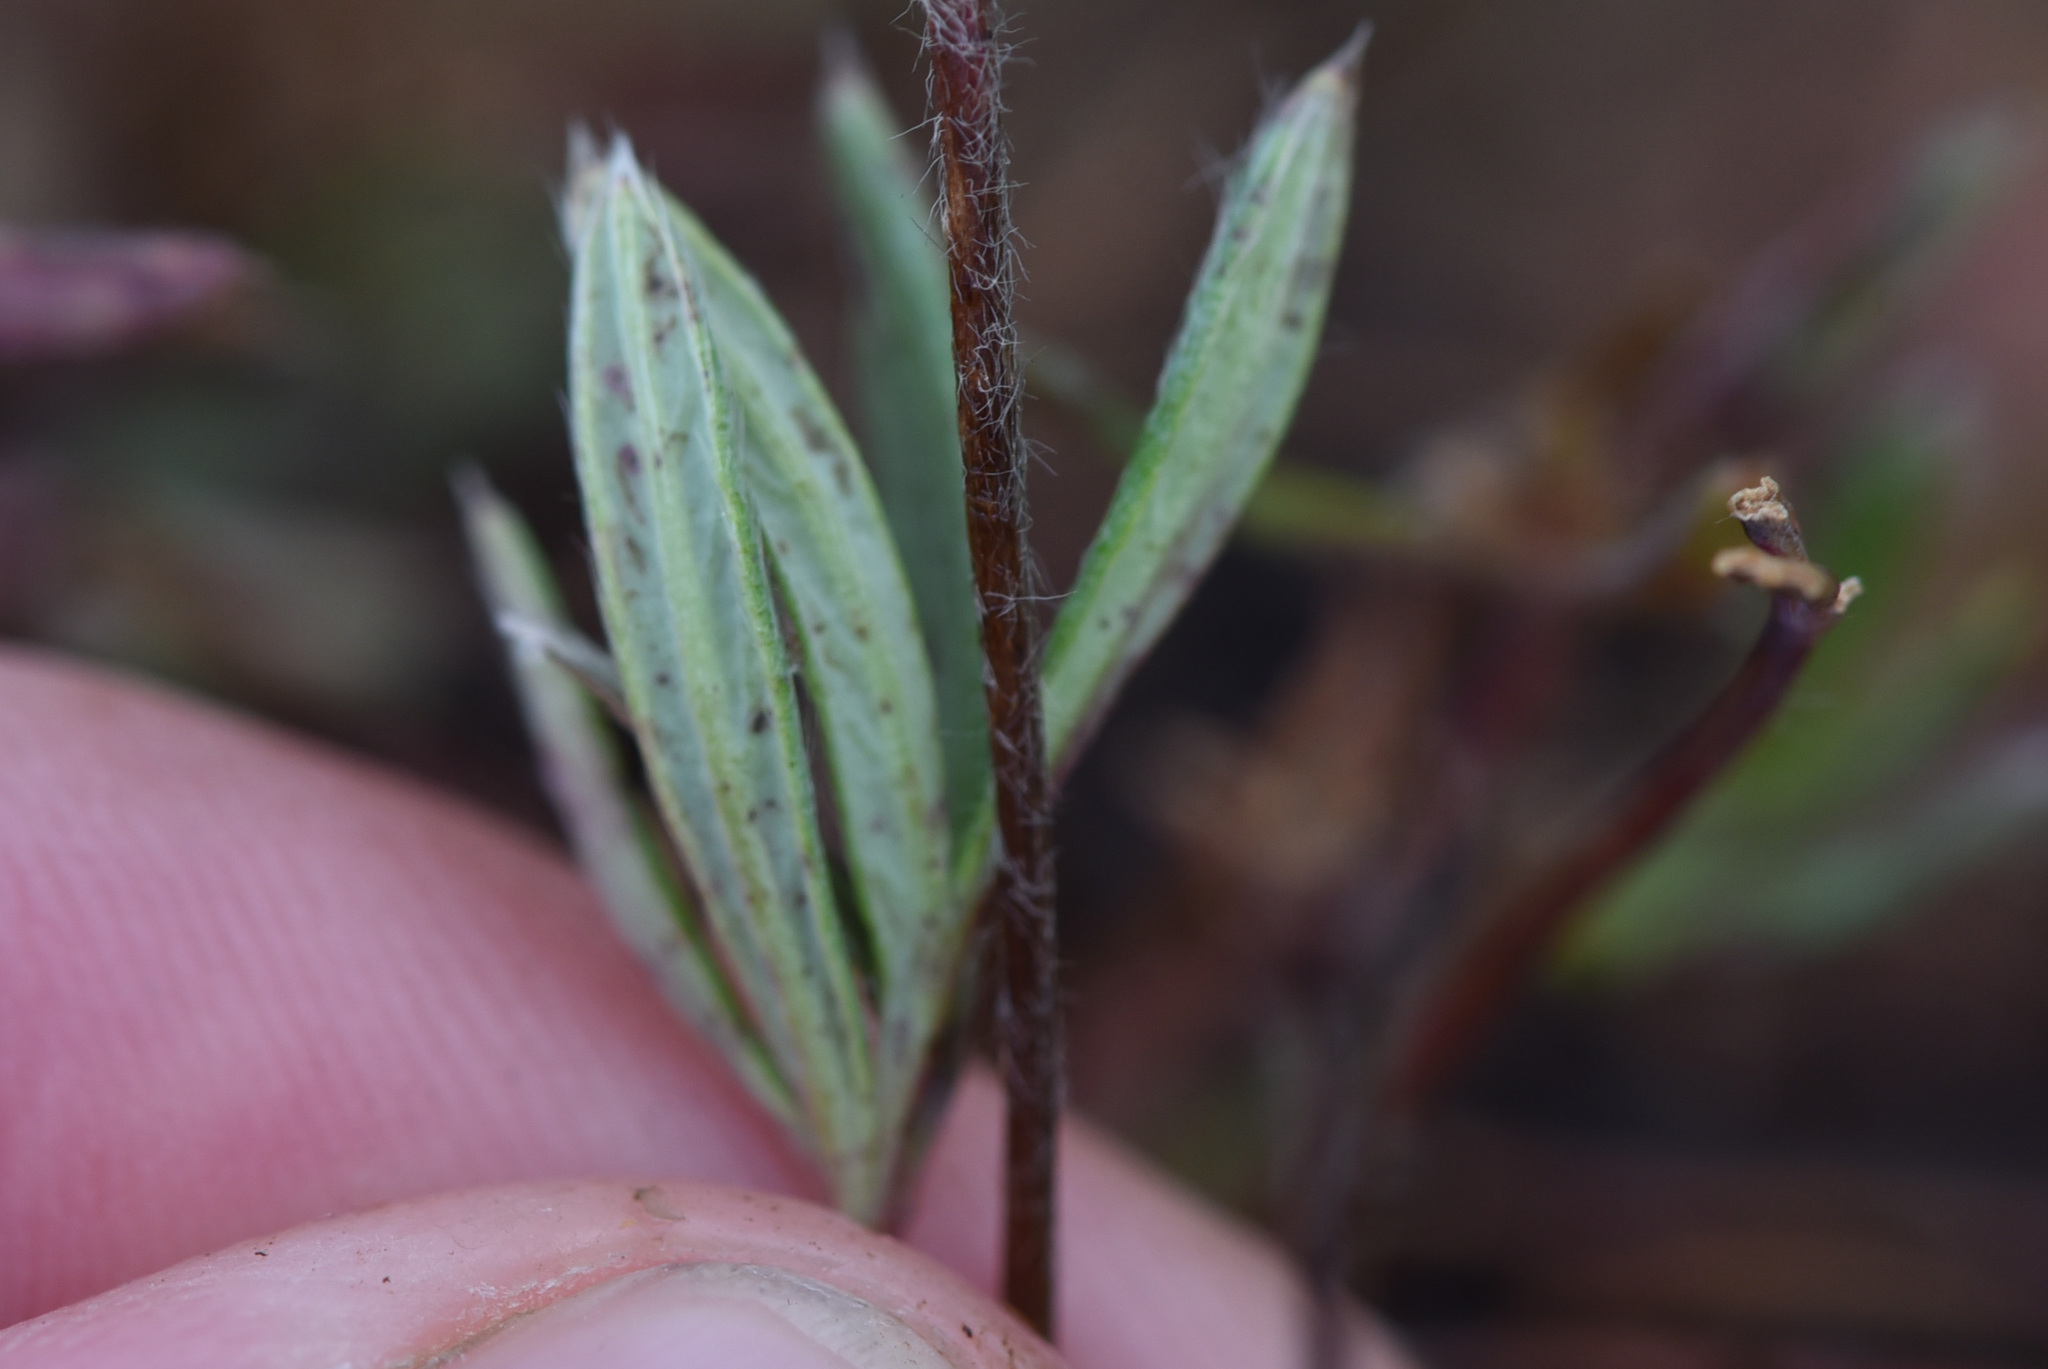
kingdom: Plantae
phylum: Tracheophyta
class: Magnoliopsida
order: Rosales
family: Rosaceae
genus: Potentilla
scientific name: Potentilla biflora
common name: Two-flowered cinquefoil
